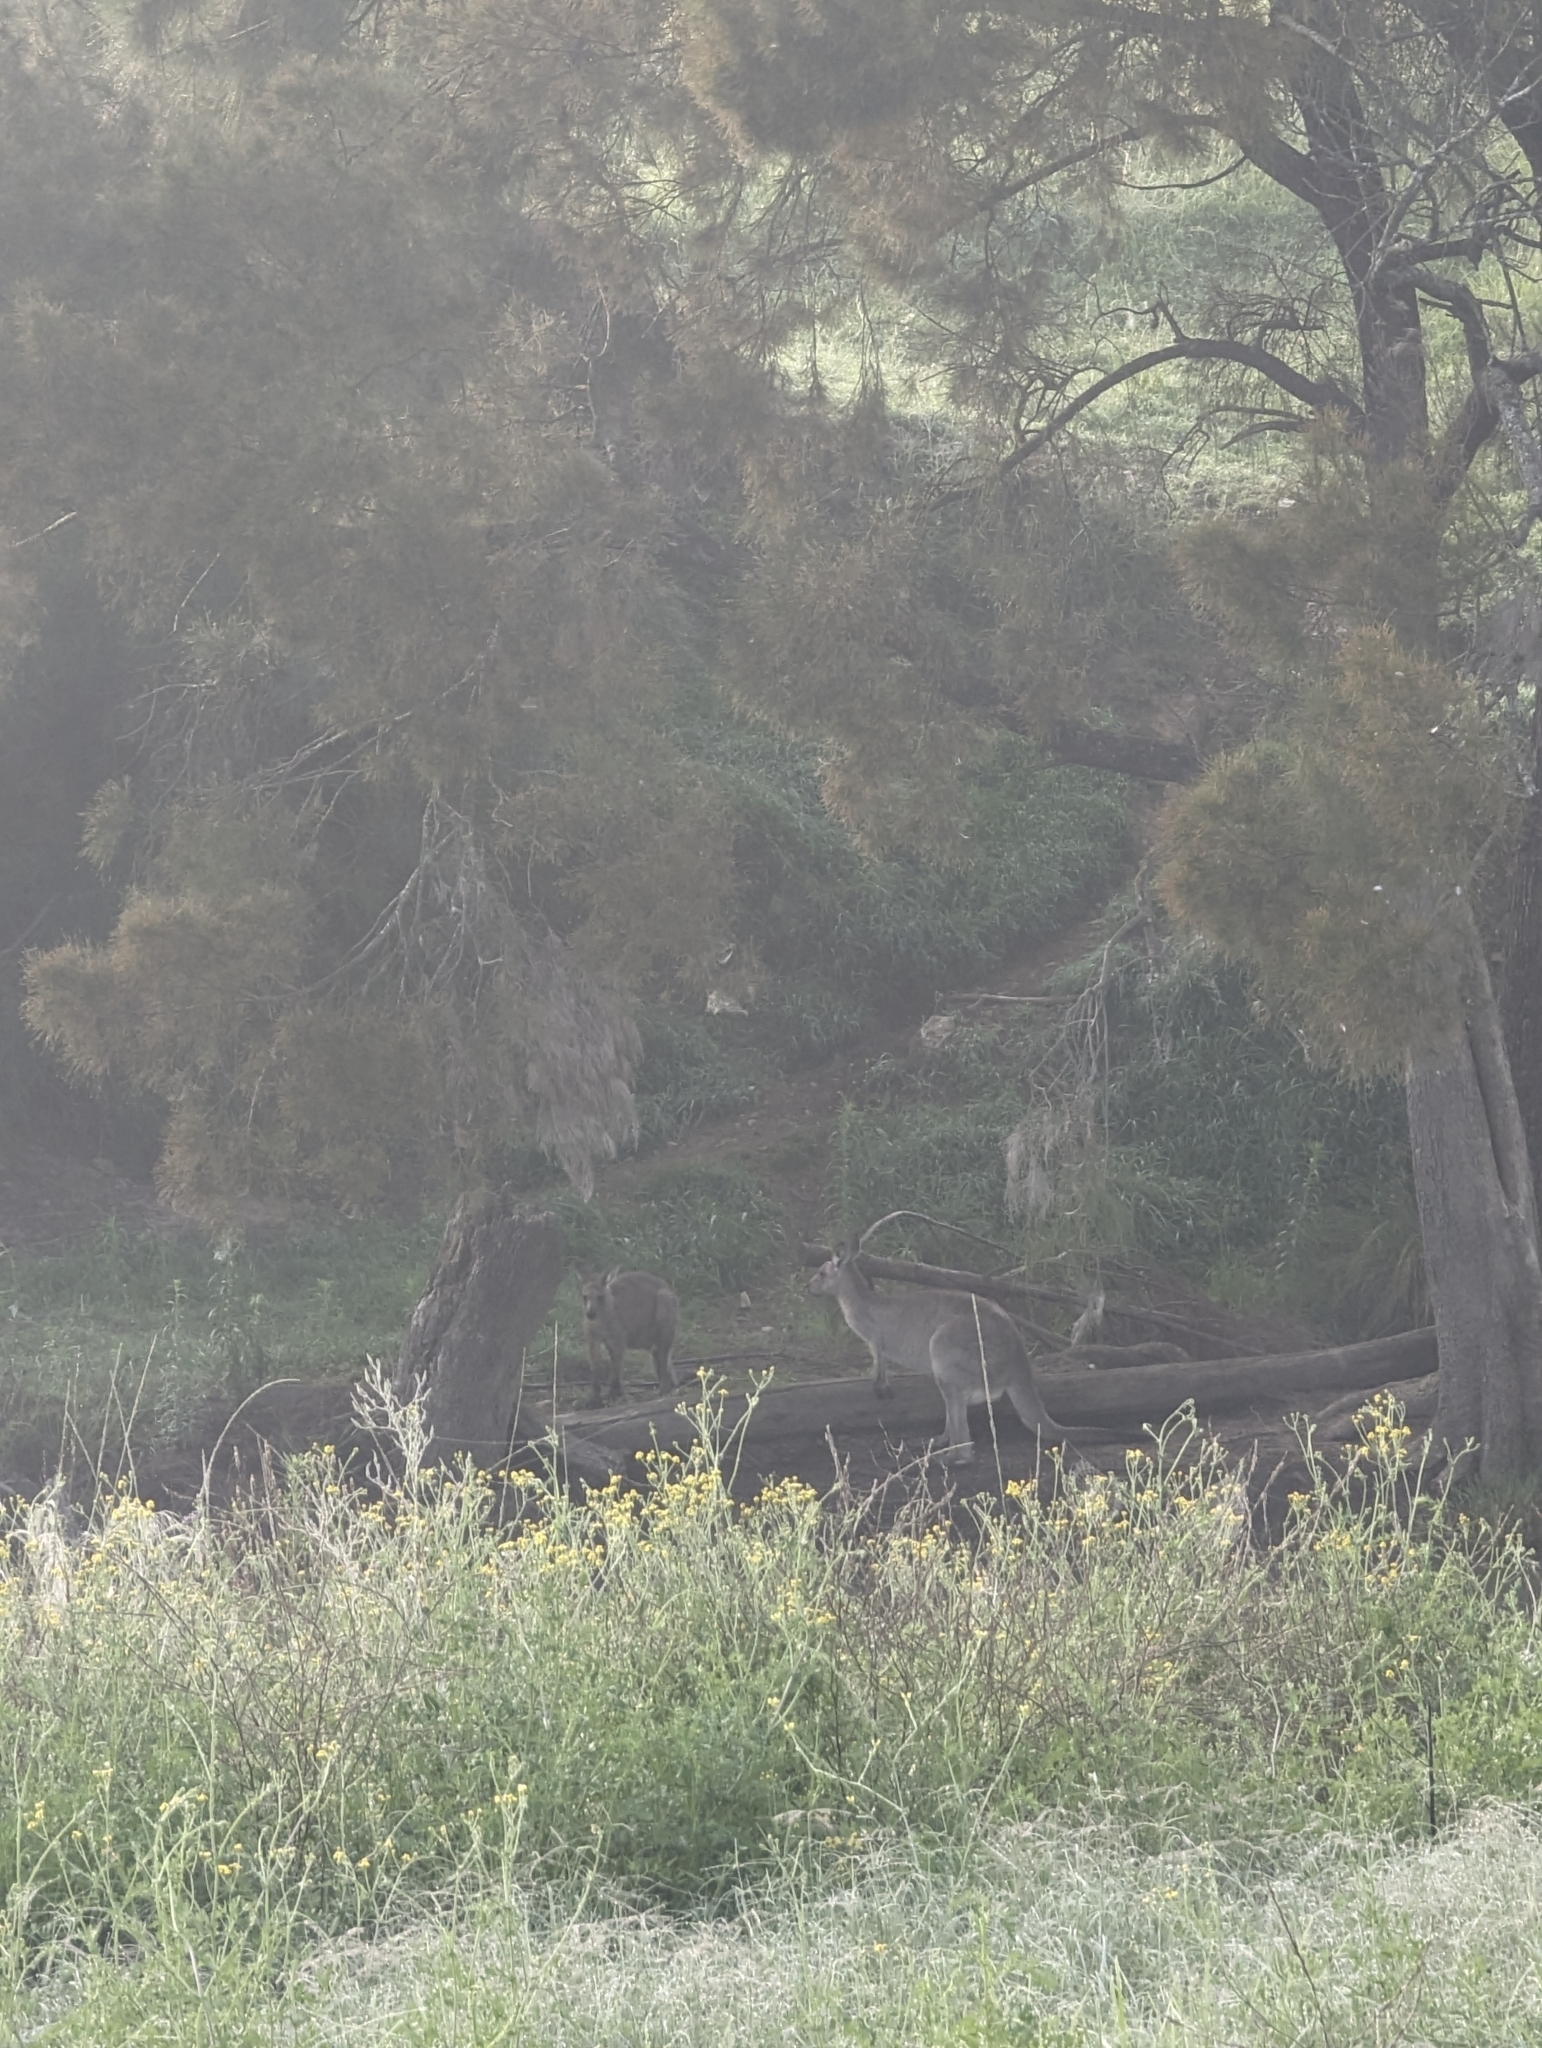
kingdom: Animalia
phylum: Chordata
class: Mammalia
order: Diprotodontia
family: Macropodidae
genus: Macropus
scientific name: Macropus giganteus
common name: Eastern grey kangaroo
